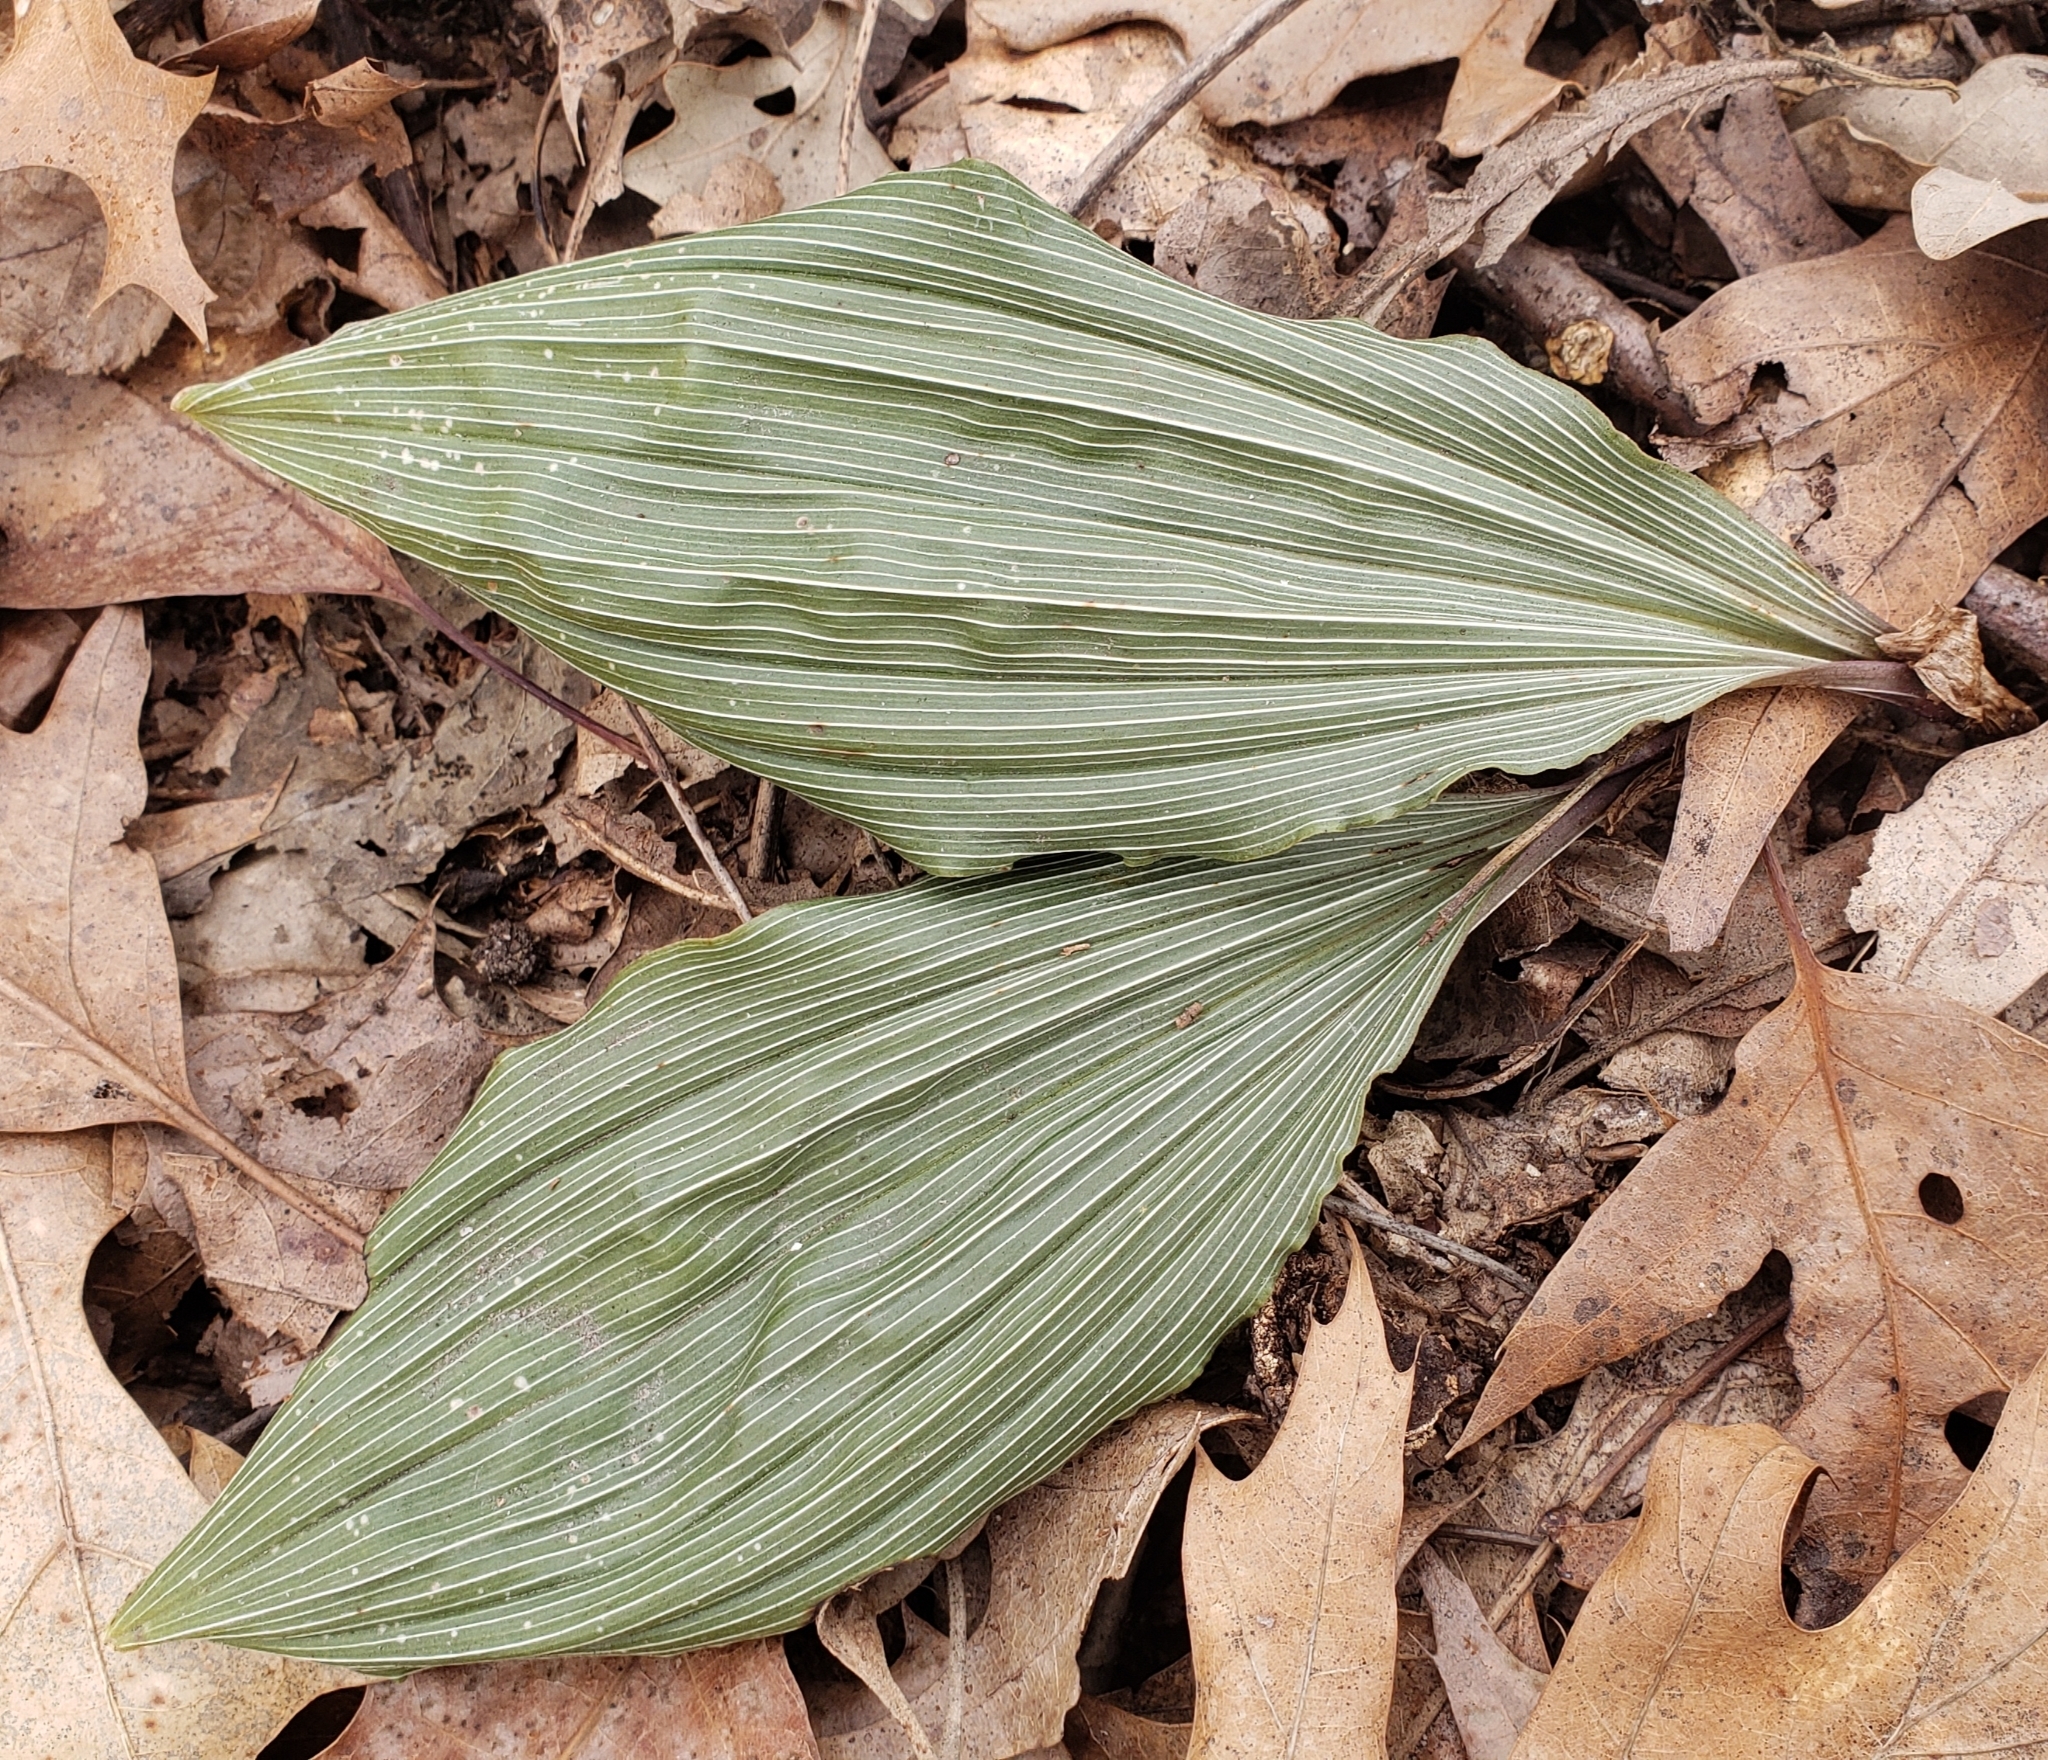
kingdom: Plantae
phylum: Tracheophyta
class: Liliopsida
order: Asparagales
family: Orchidaceae
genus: Aplectrum
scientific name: Aplectrum hyemale
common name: Adam-and-eve
